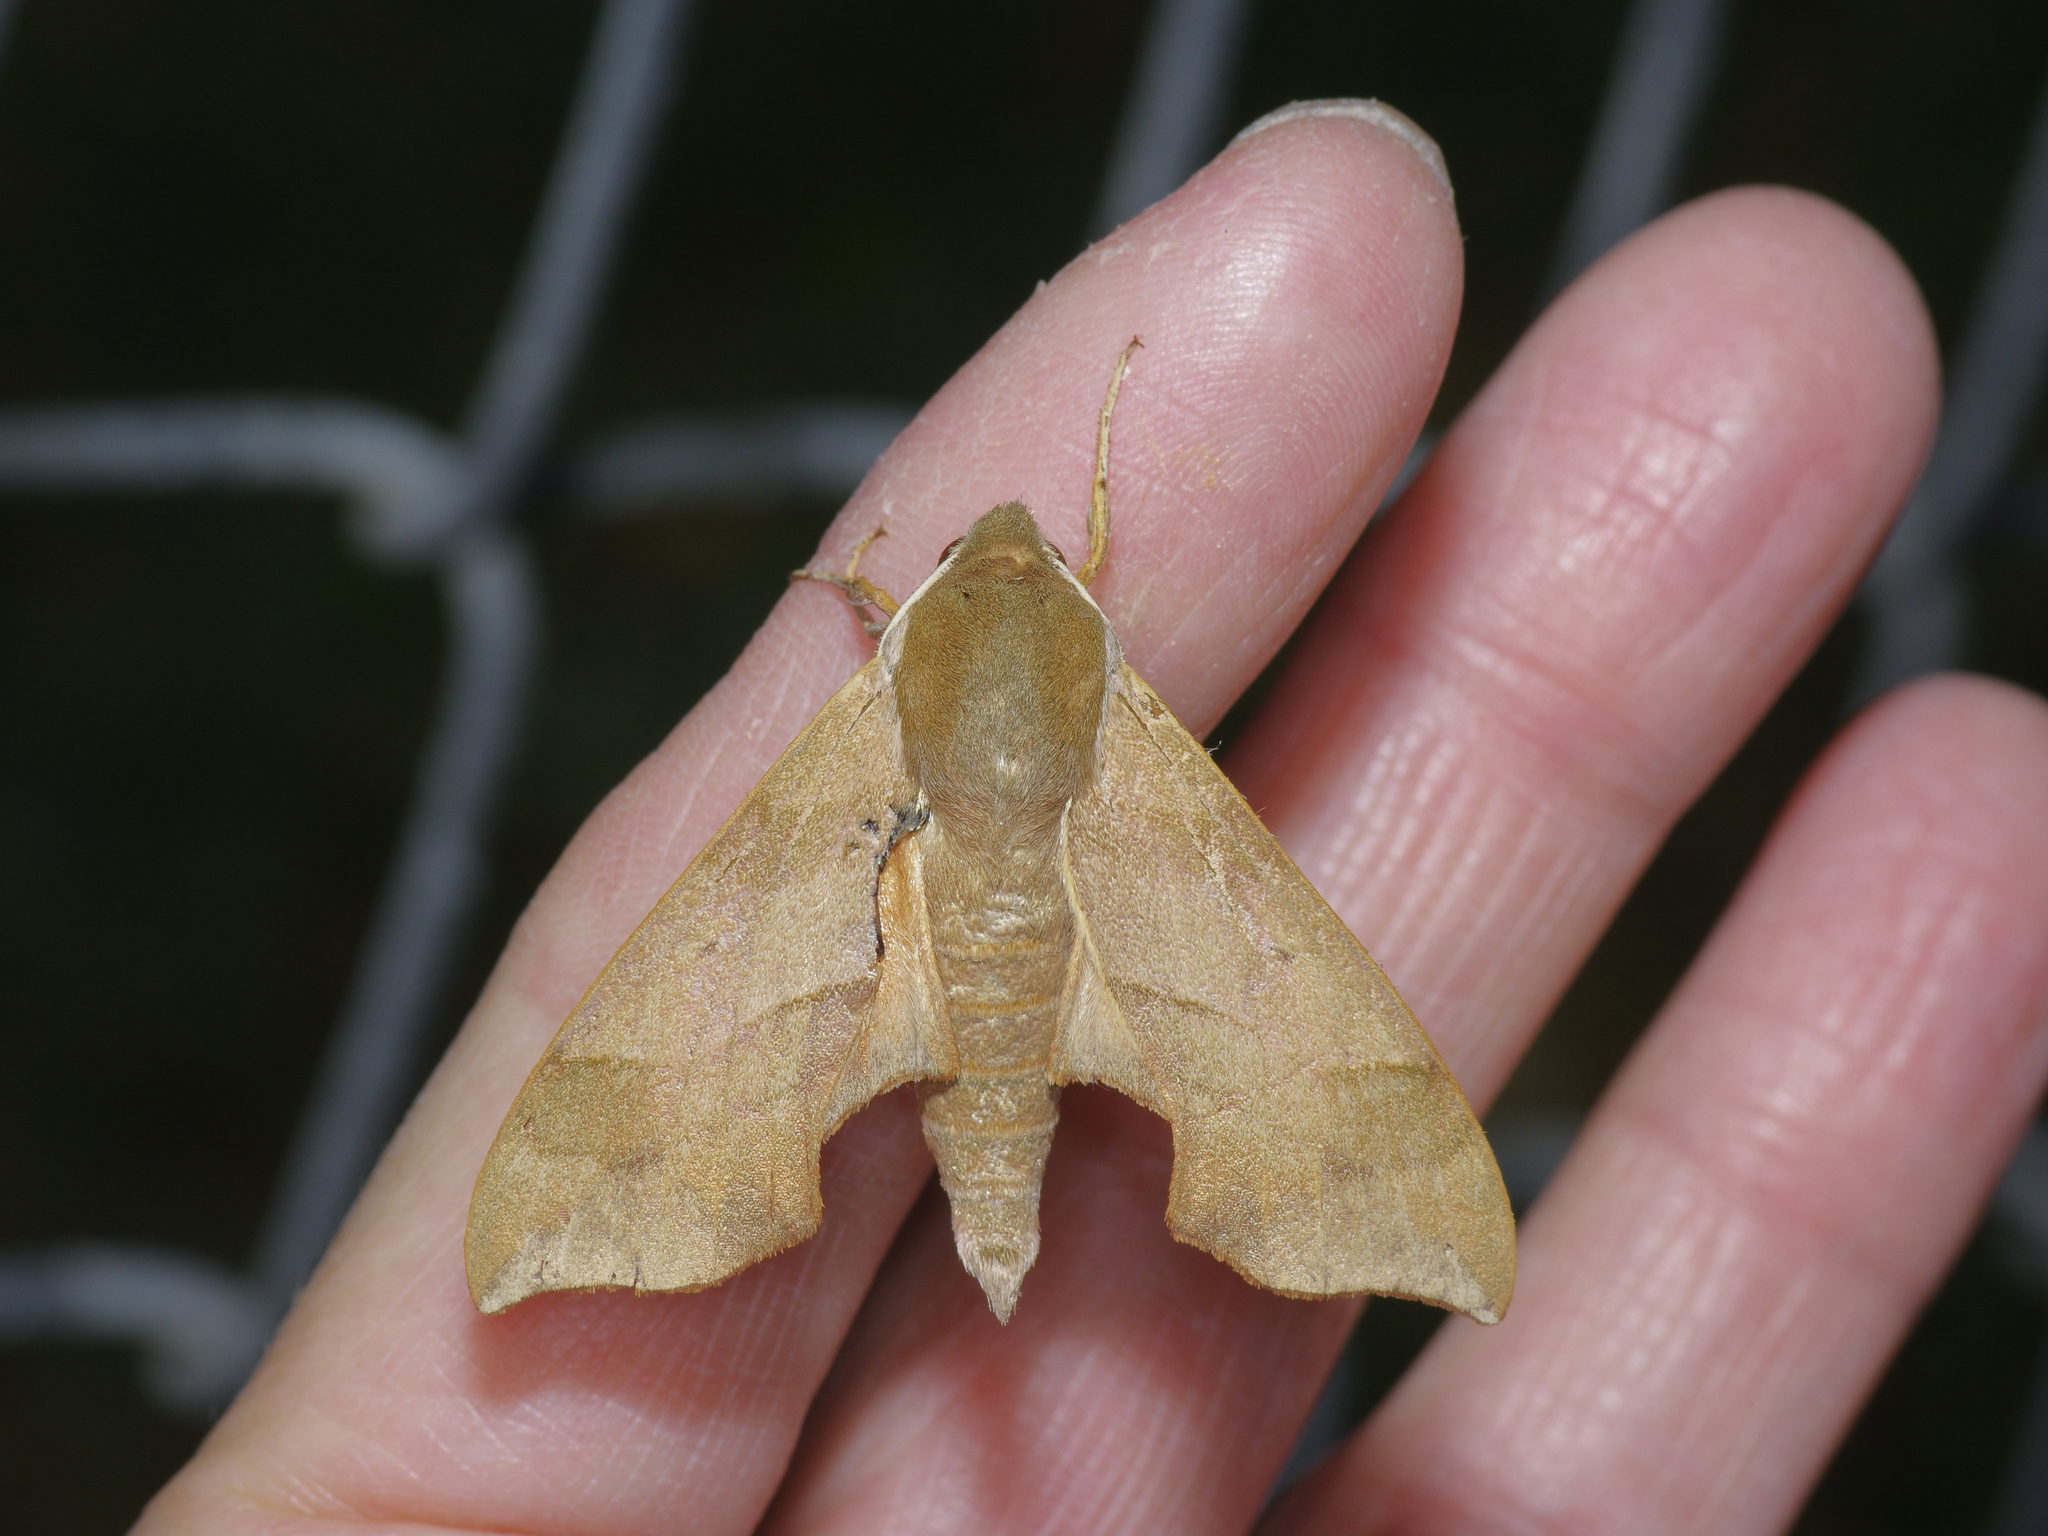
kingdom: Animalia
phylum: Arthropoda
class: Insecta
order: Lepidoptera
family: Sphingidae
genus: Darapsa
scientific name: Darapsa myron
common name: Hog sphinx
